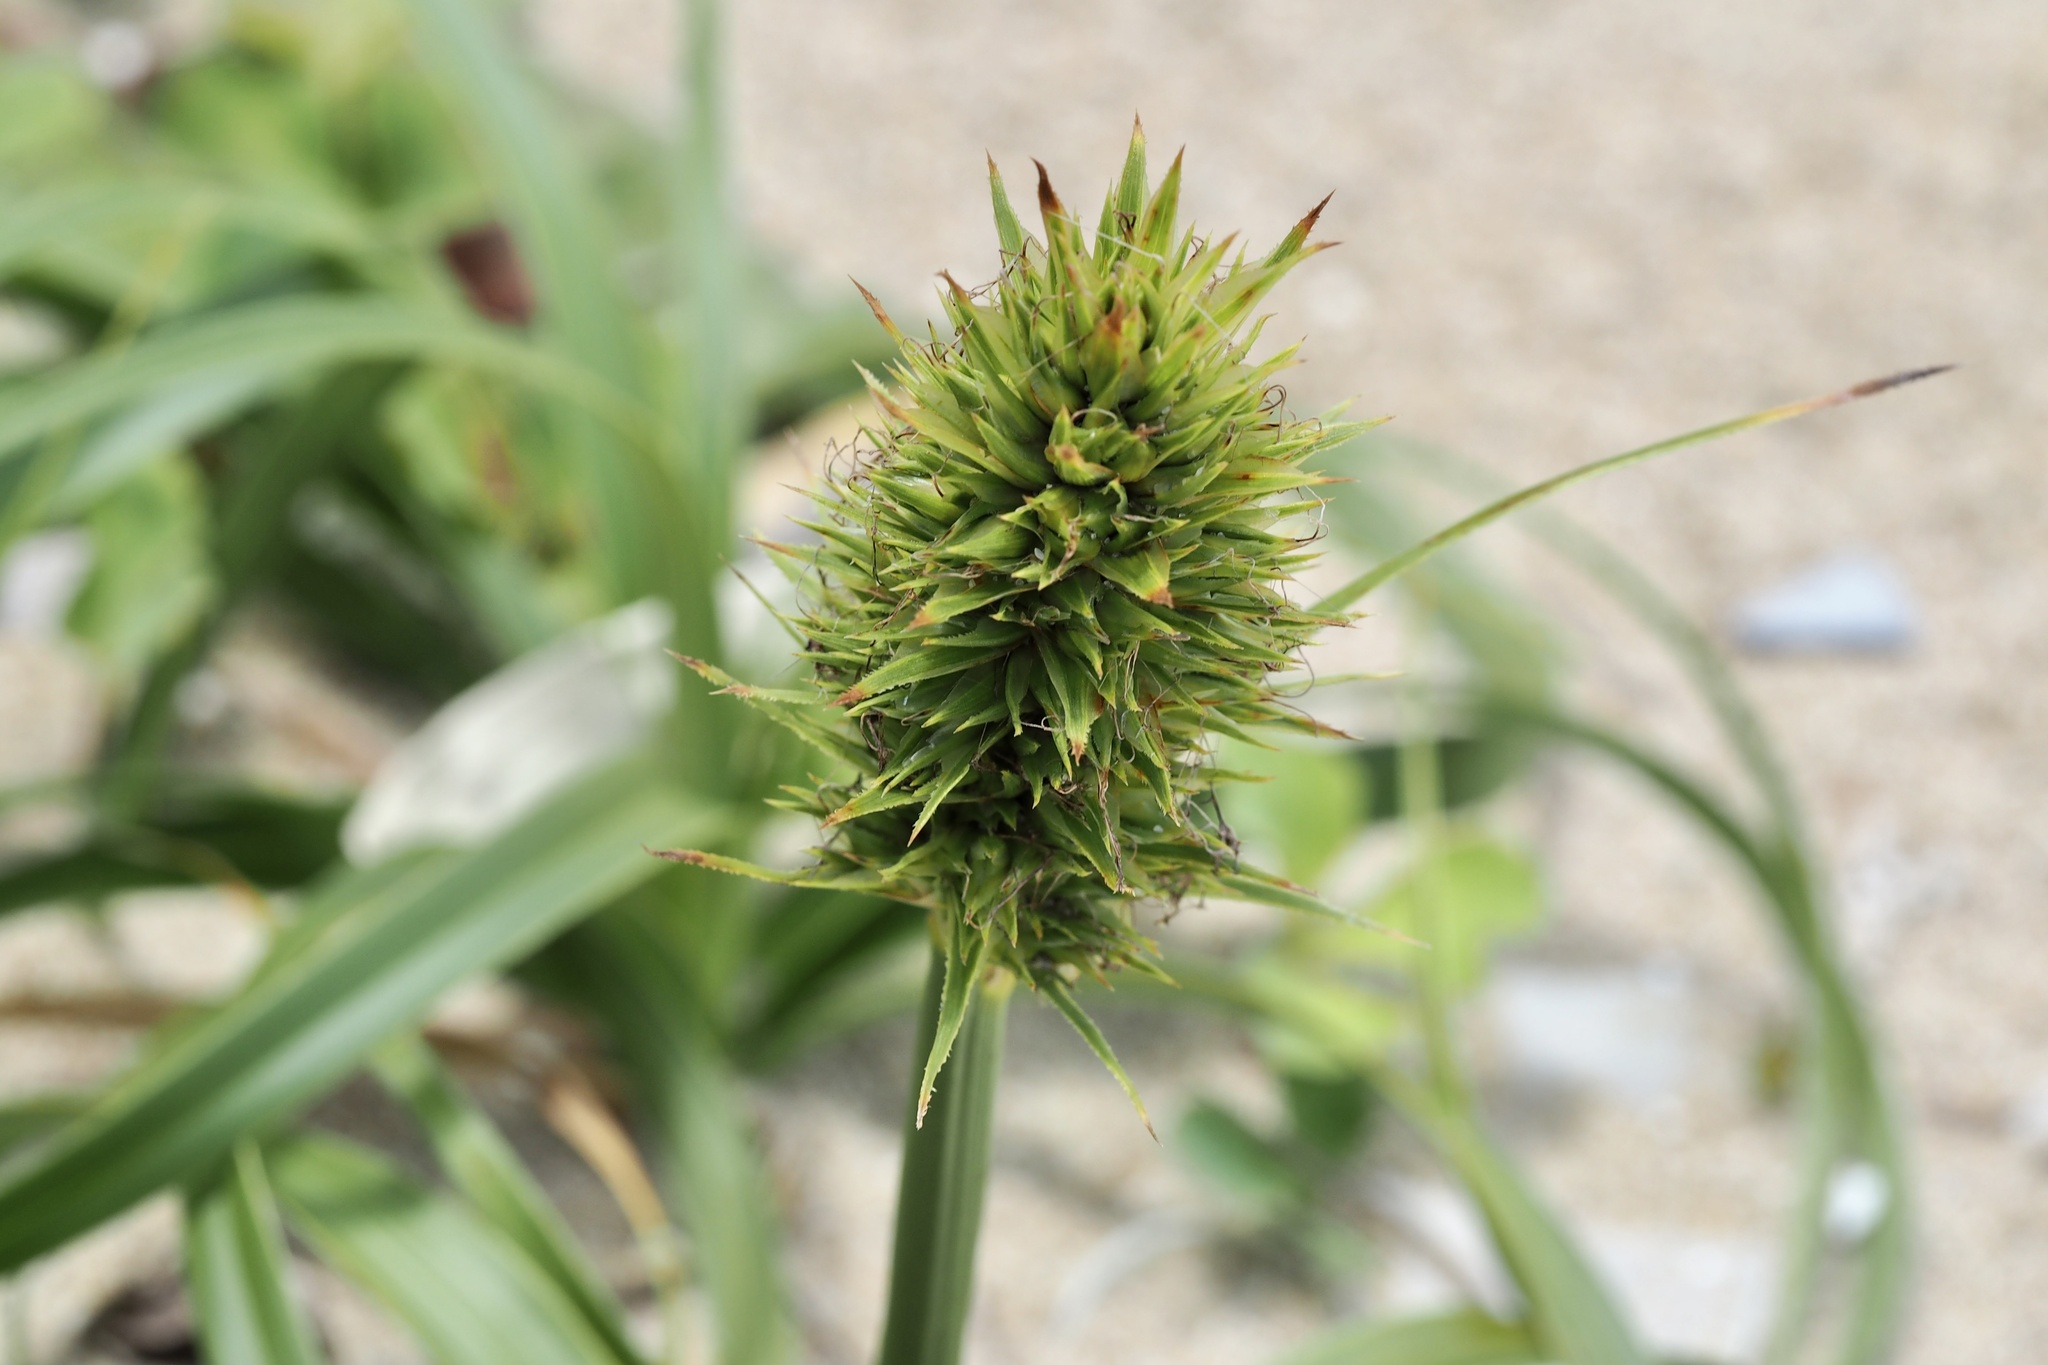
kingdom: Plantae
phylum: Tracheophyta
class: Liliopsida
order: Poales
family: Cyperaceae
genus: Carex
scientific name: Carex kobomugi
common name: Japanese sedge
